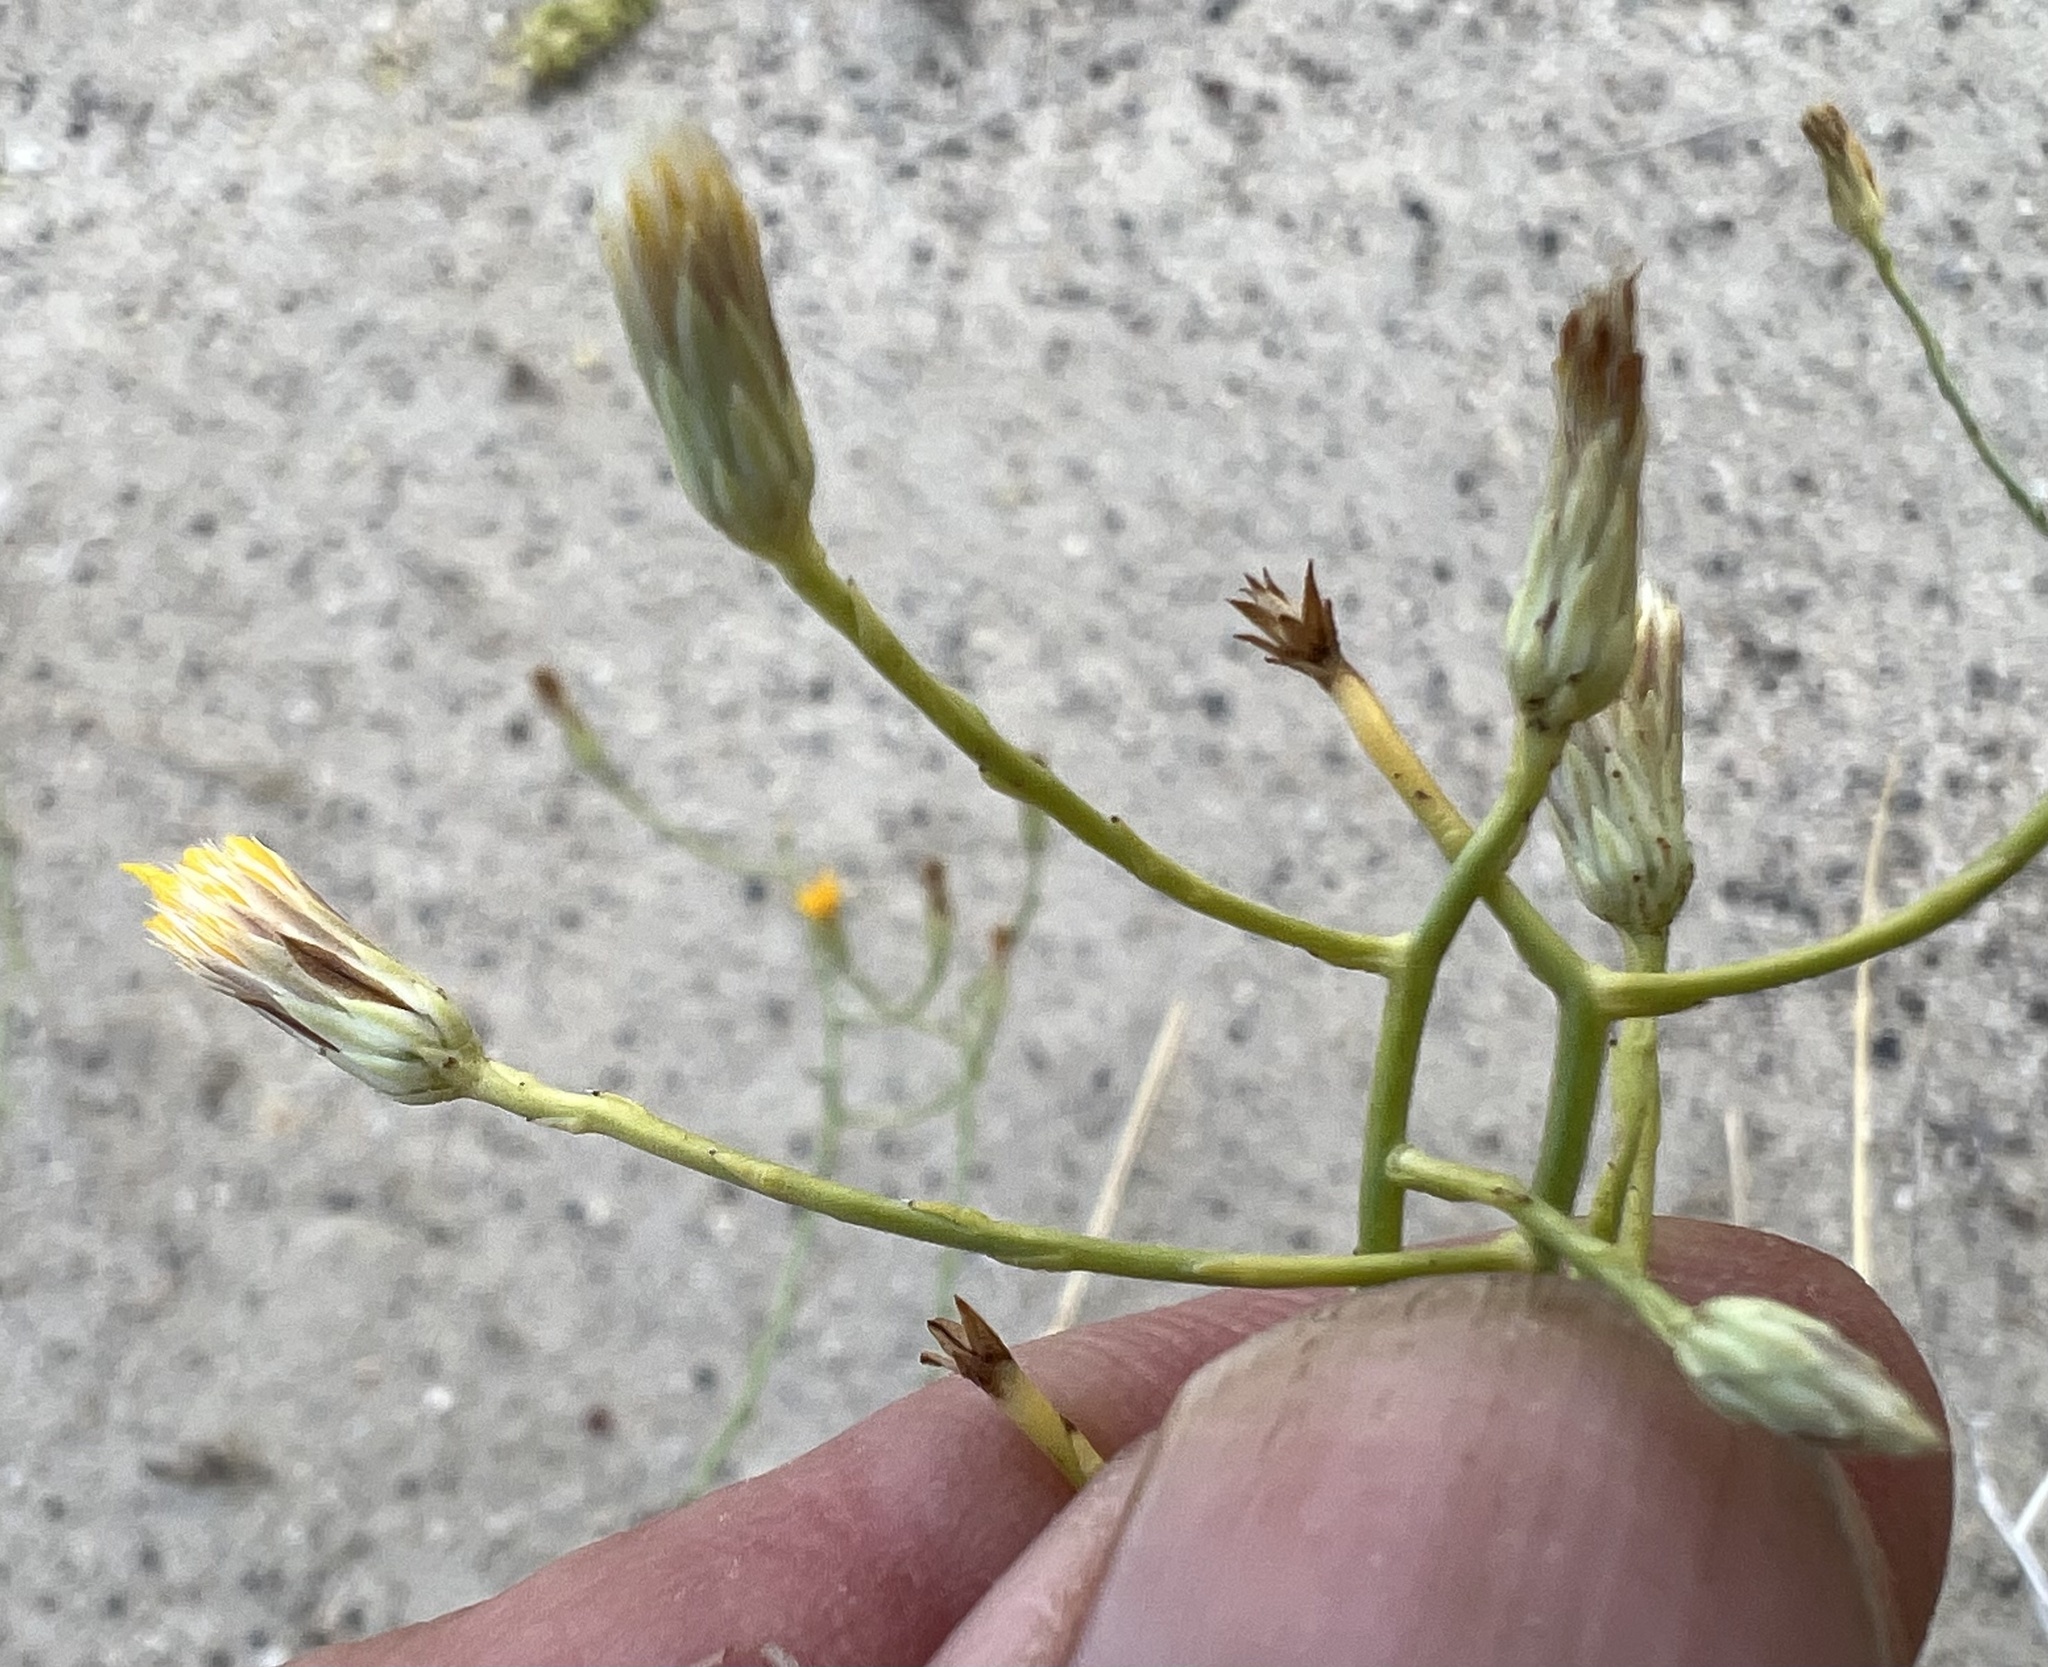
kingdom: Plantae
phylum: Tracheophyta
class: Magnoliopsida
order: Asterales
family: Asteraceae
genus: Leucosyris
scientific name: Leucosyris carnosa
